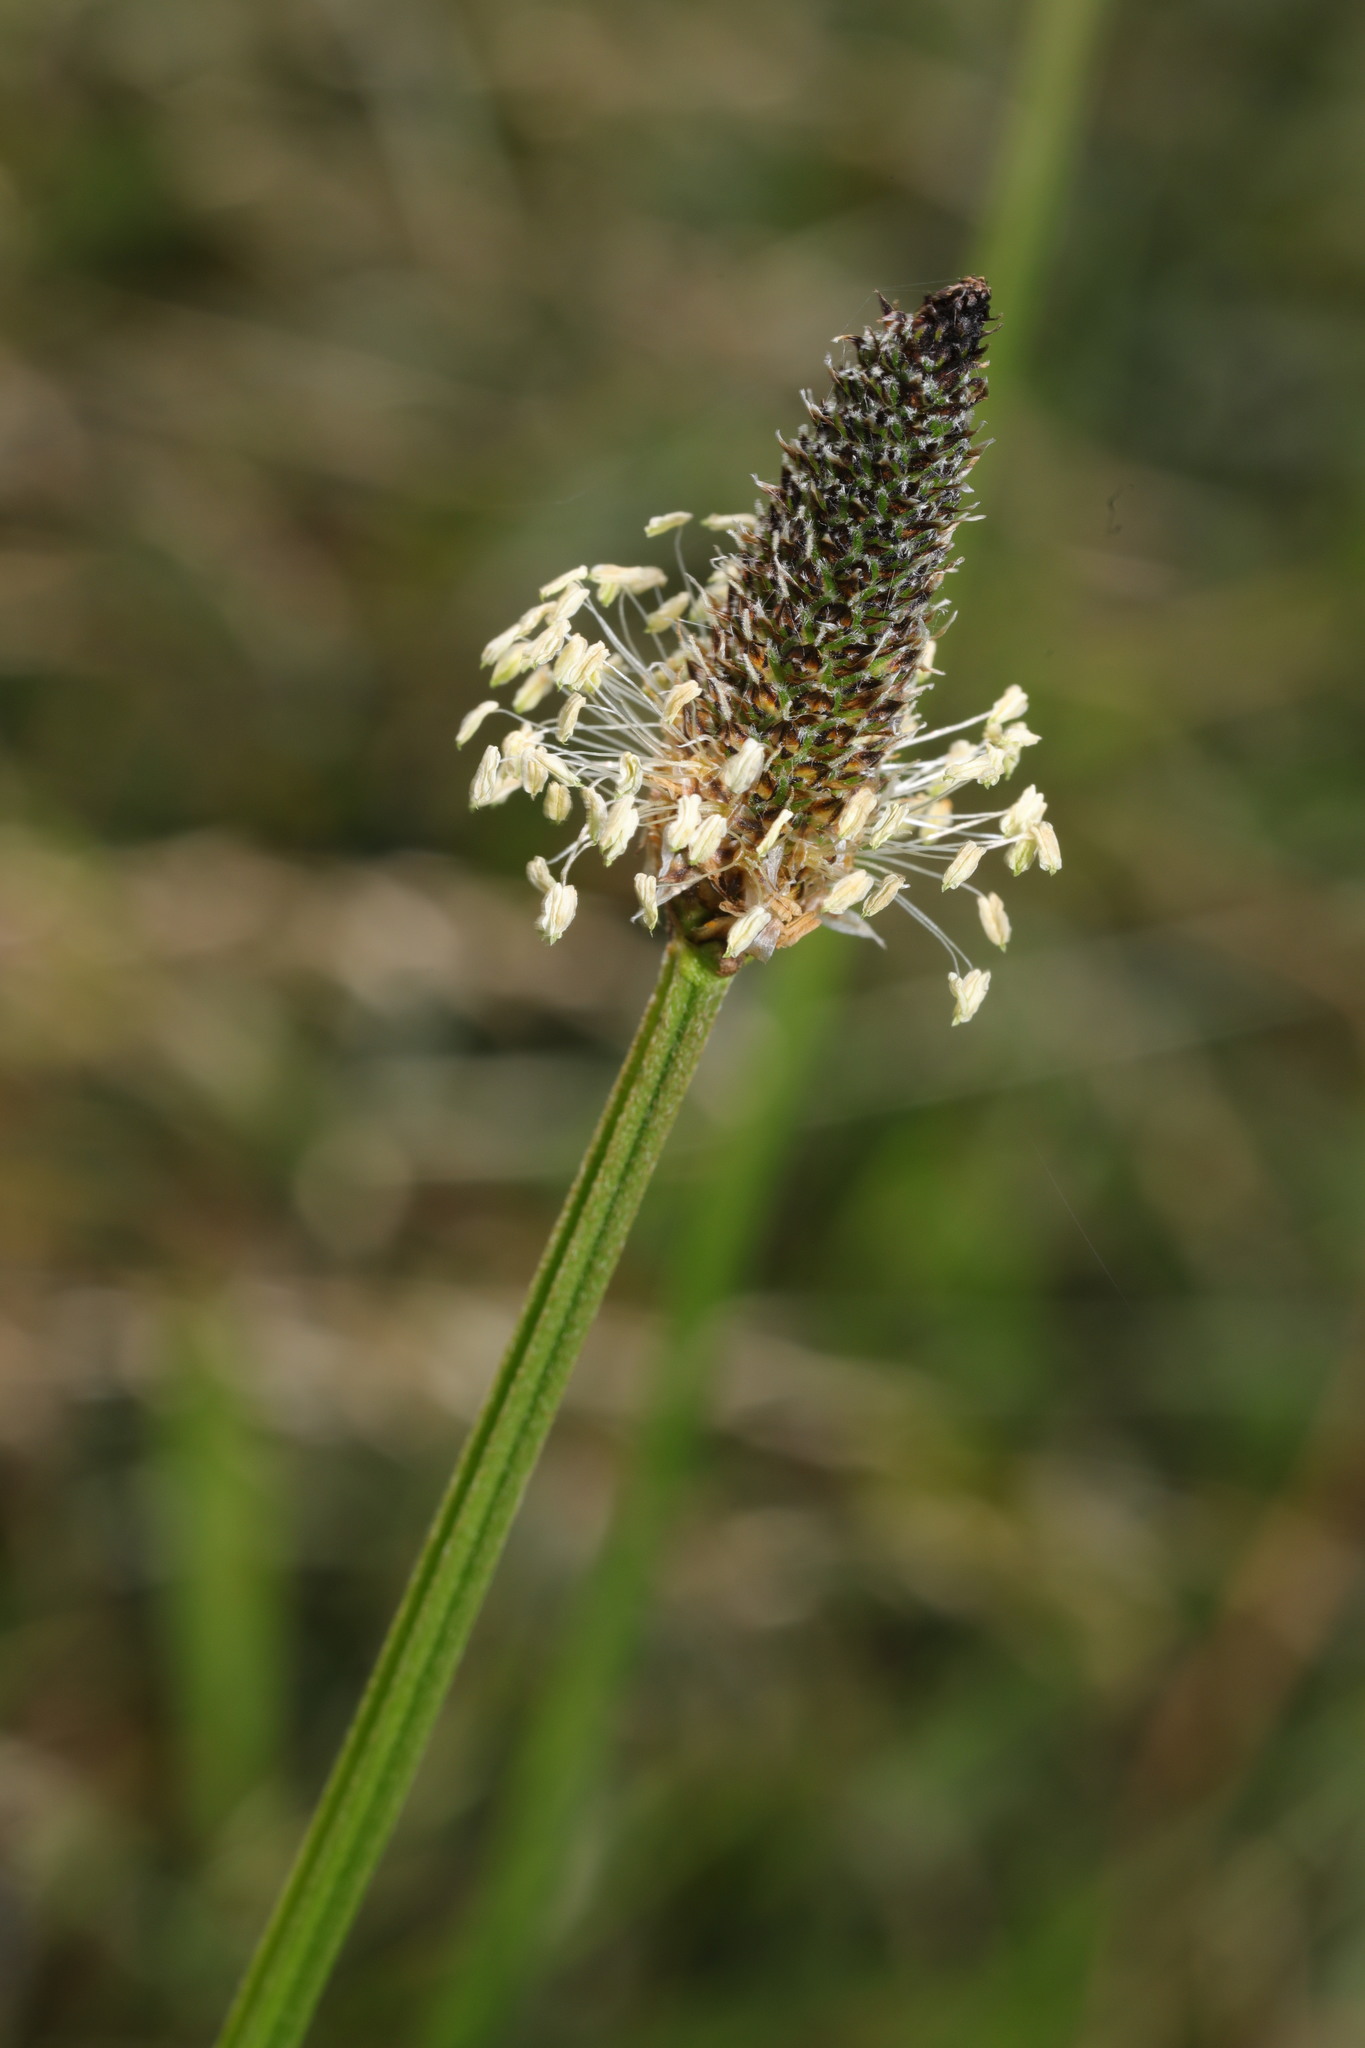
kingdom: Plantae
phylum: Tracheophyta
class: Magnoliopsida
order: Lamiales
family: Plantaginaceae
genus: Plantago
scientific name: Plantago lanceolata
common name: Ribwort plantain
